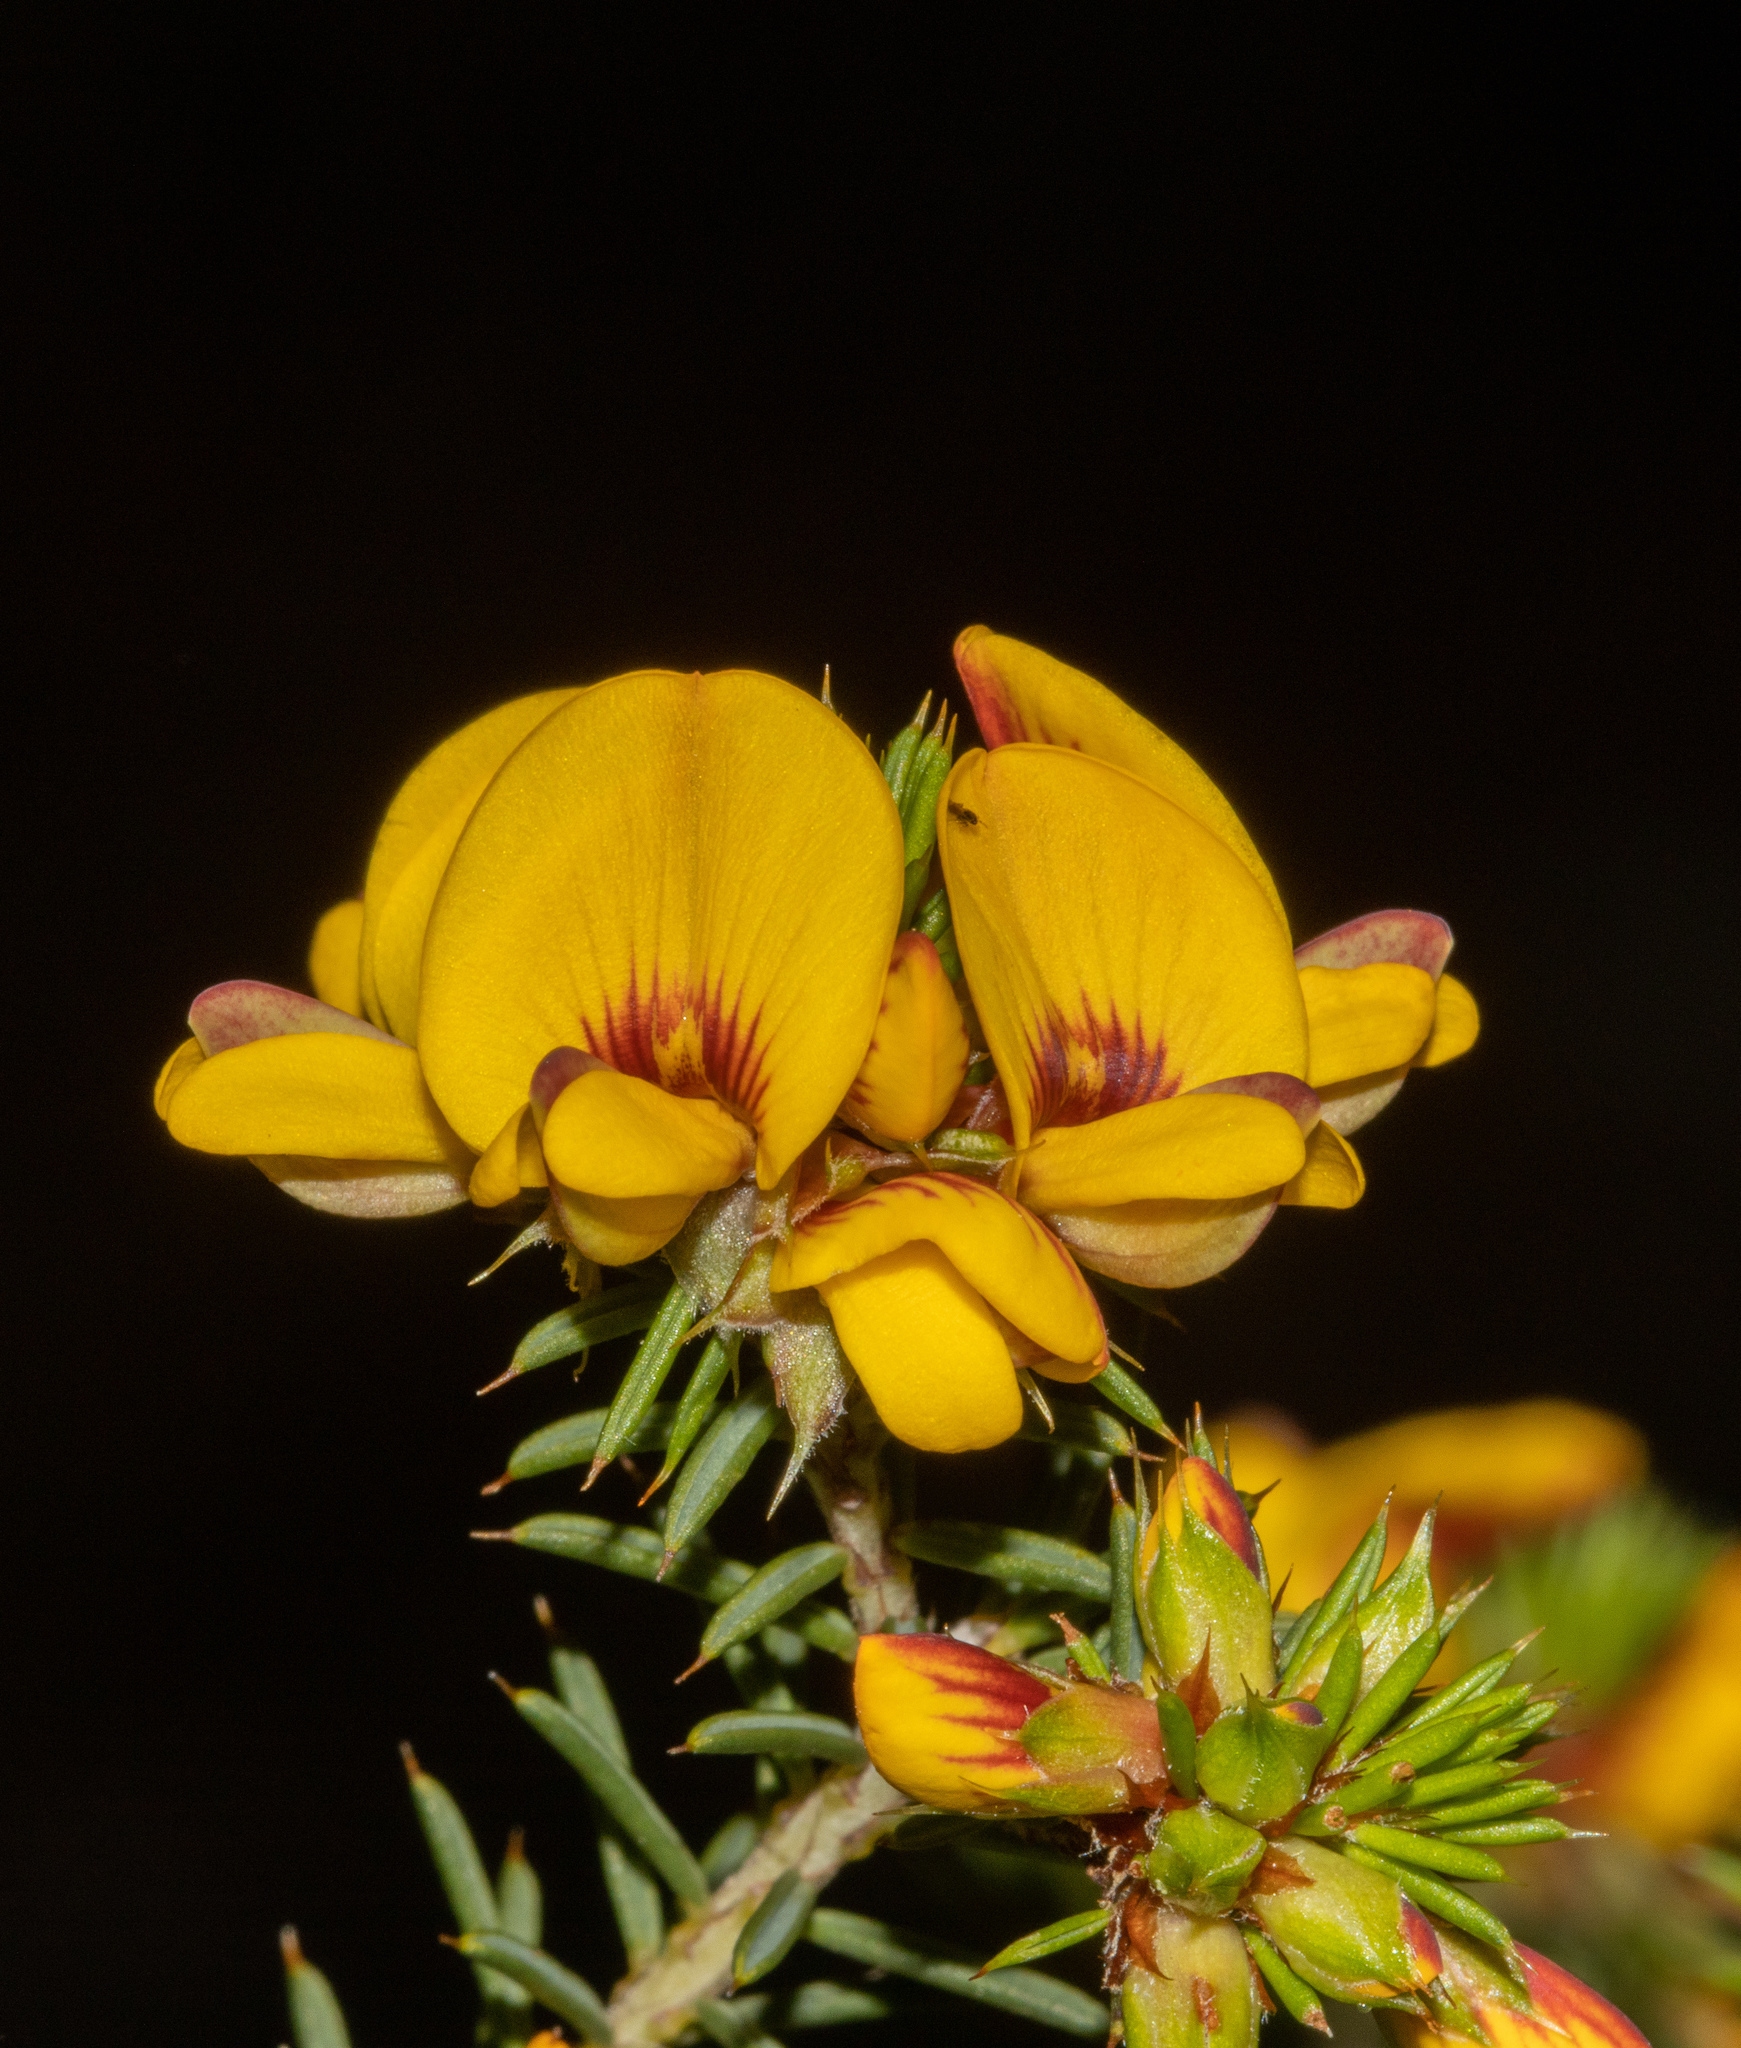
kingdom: Plantae
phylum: Tracheophyta
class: Magnoliopsida
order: Fabales
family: Fabaceae
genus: Pultenaea
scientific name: Pultenaea acerosa
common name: Bristly bush-pea
